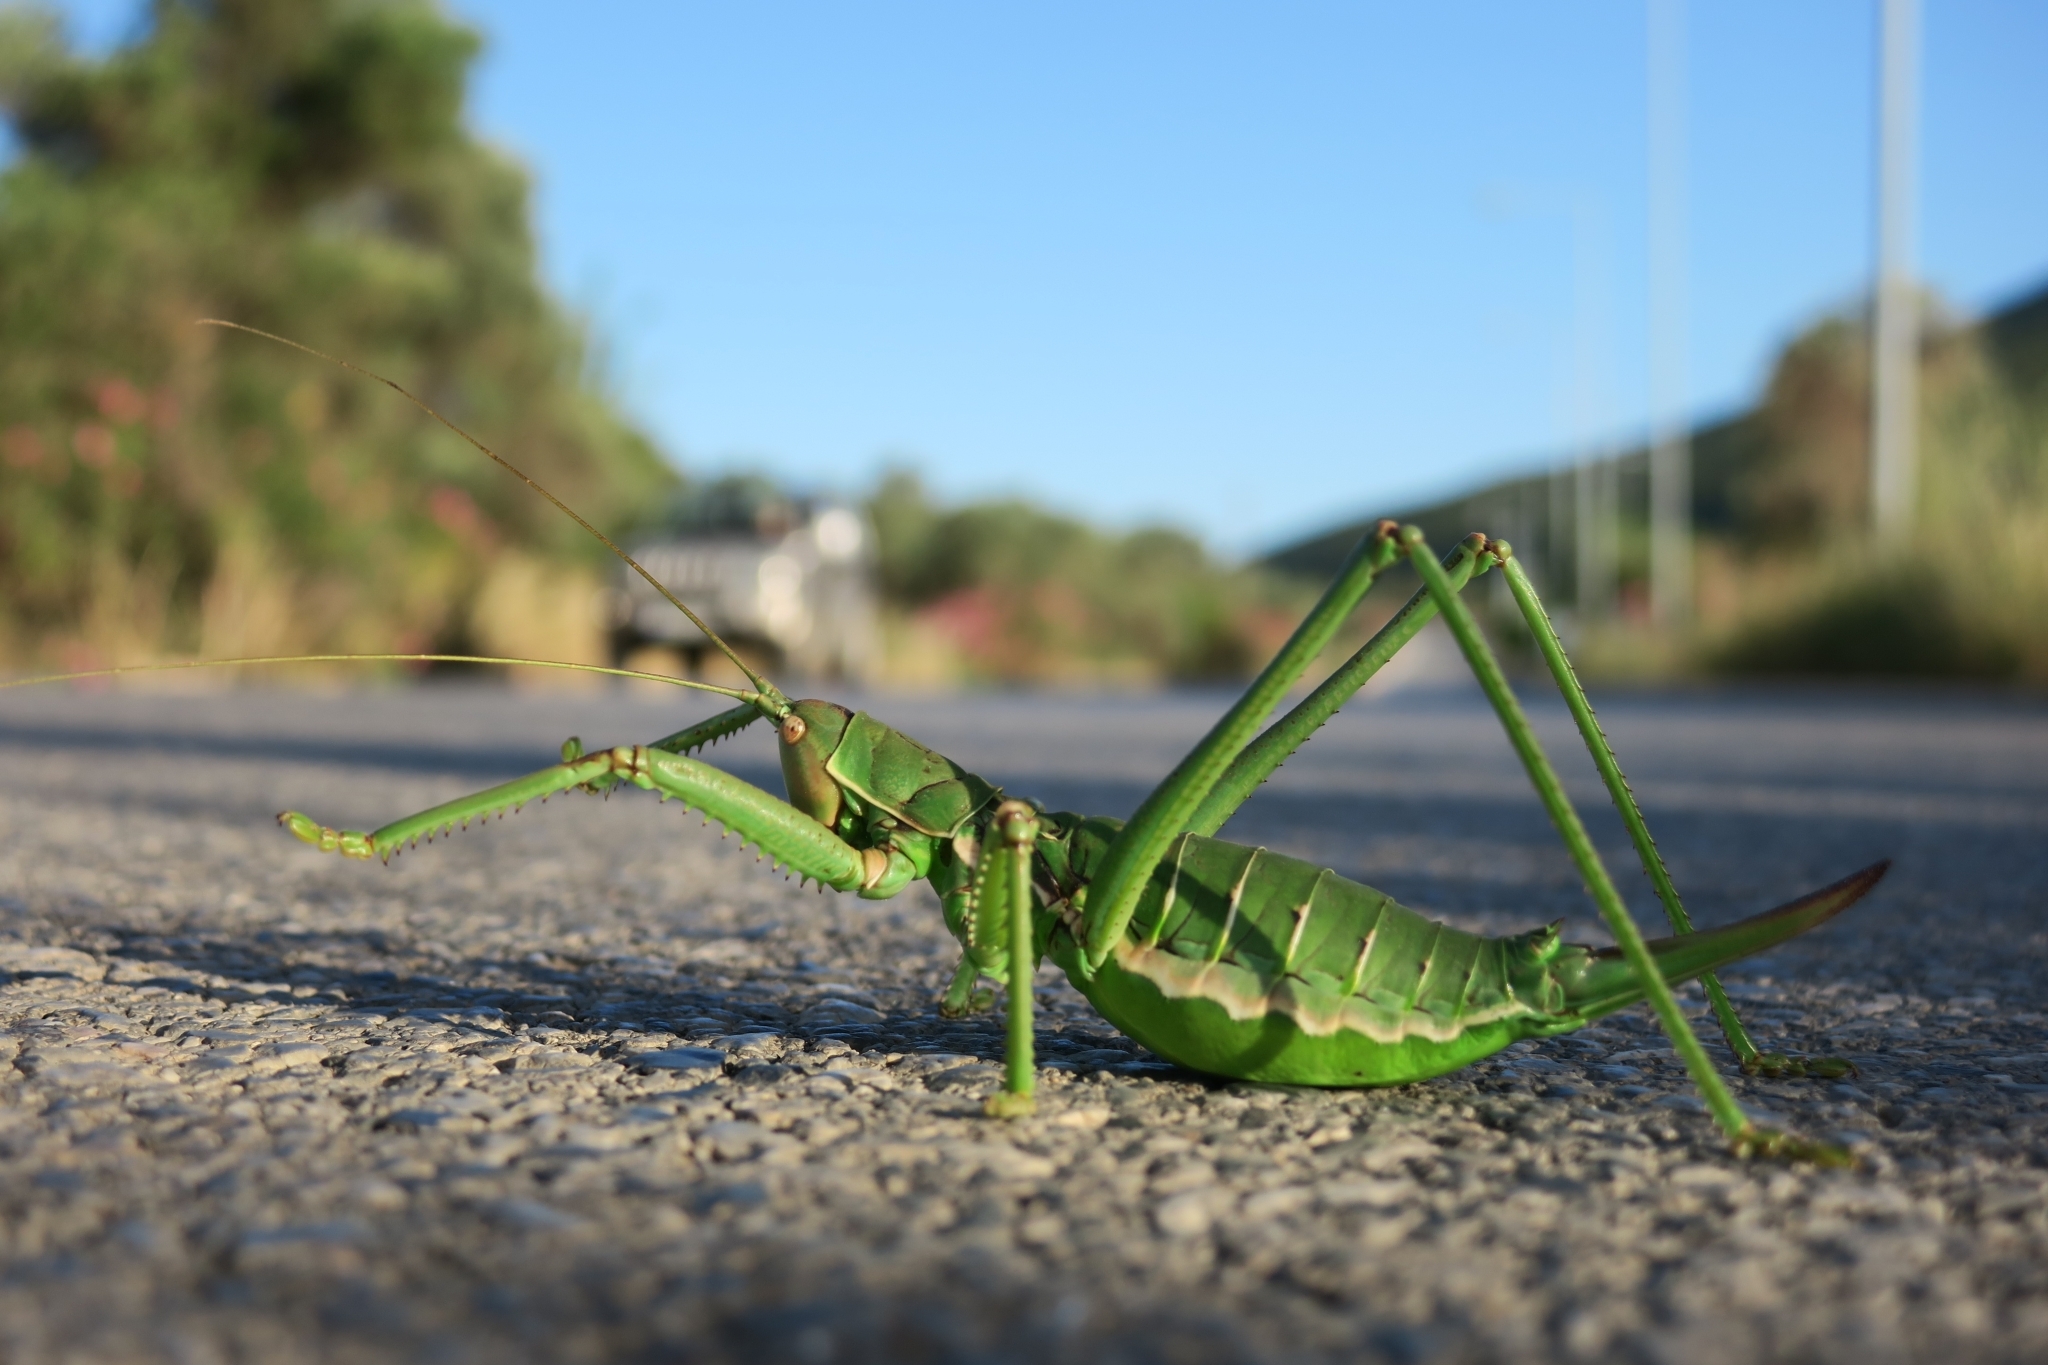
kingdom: Animalia
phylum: Arthropoda
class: Insecta
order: Orthoptera
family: Tettigoniidae
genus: Saga
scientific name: Saga hellenica
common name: Greek predatory bush-cricket
